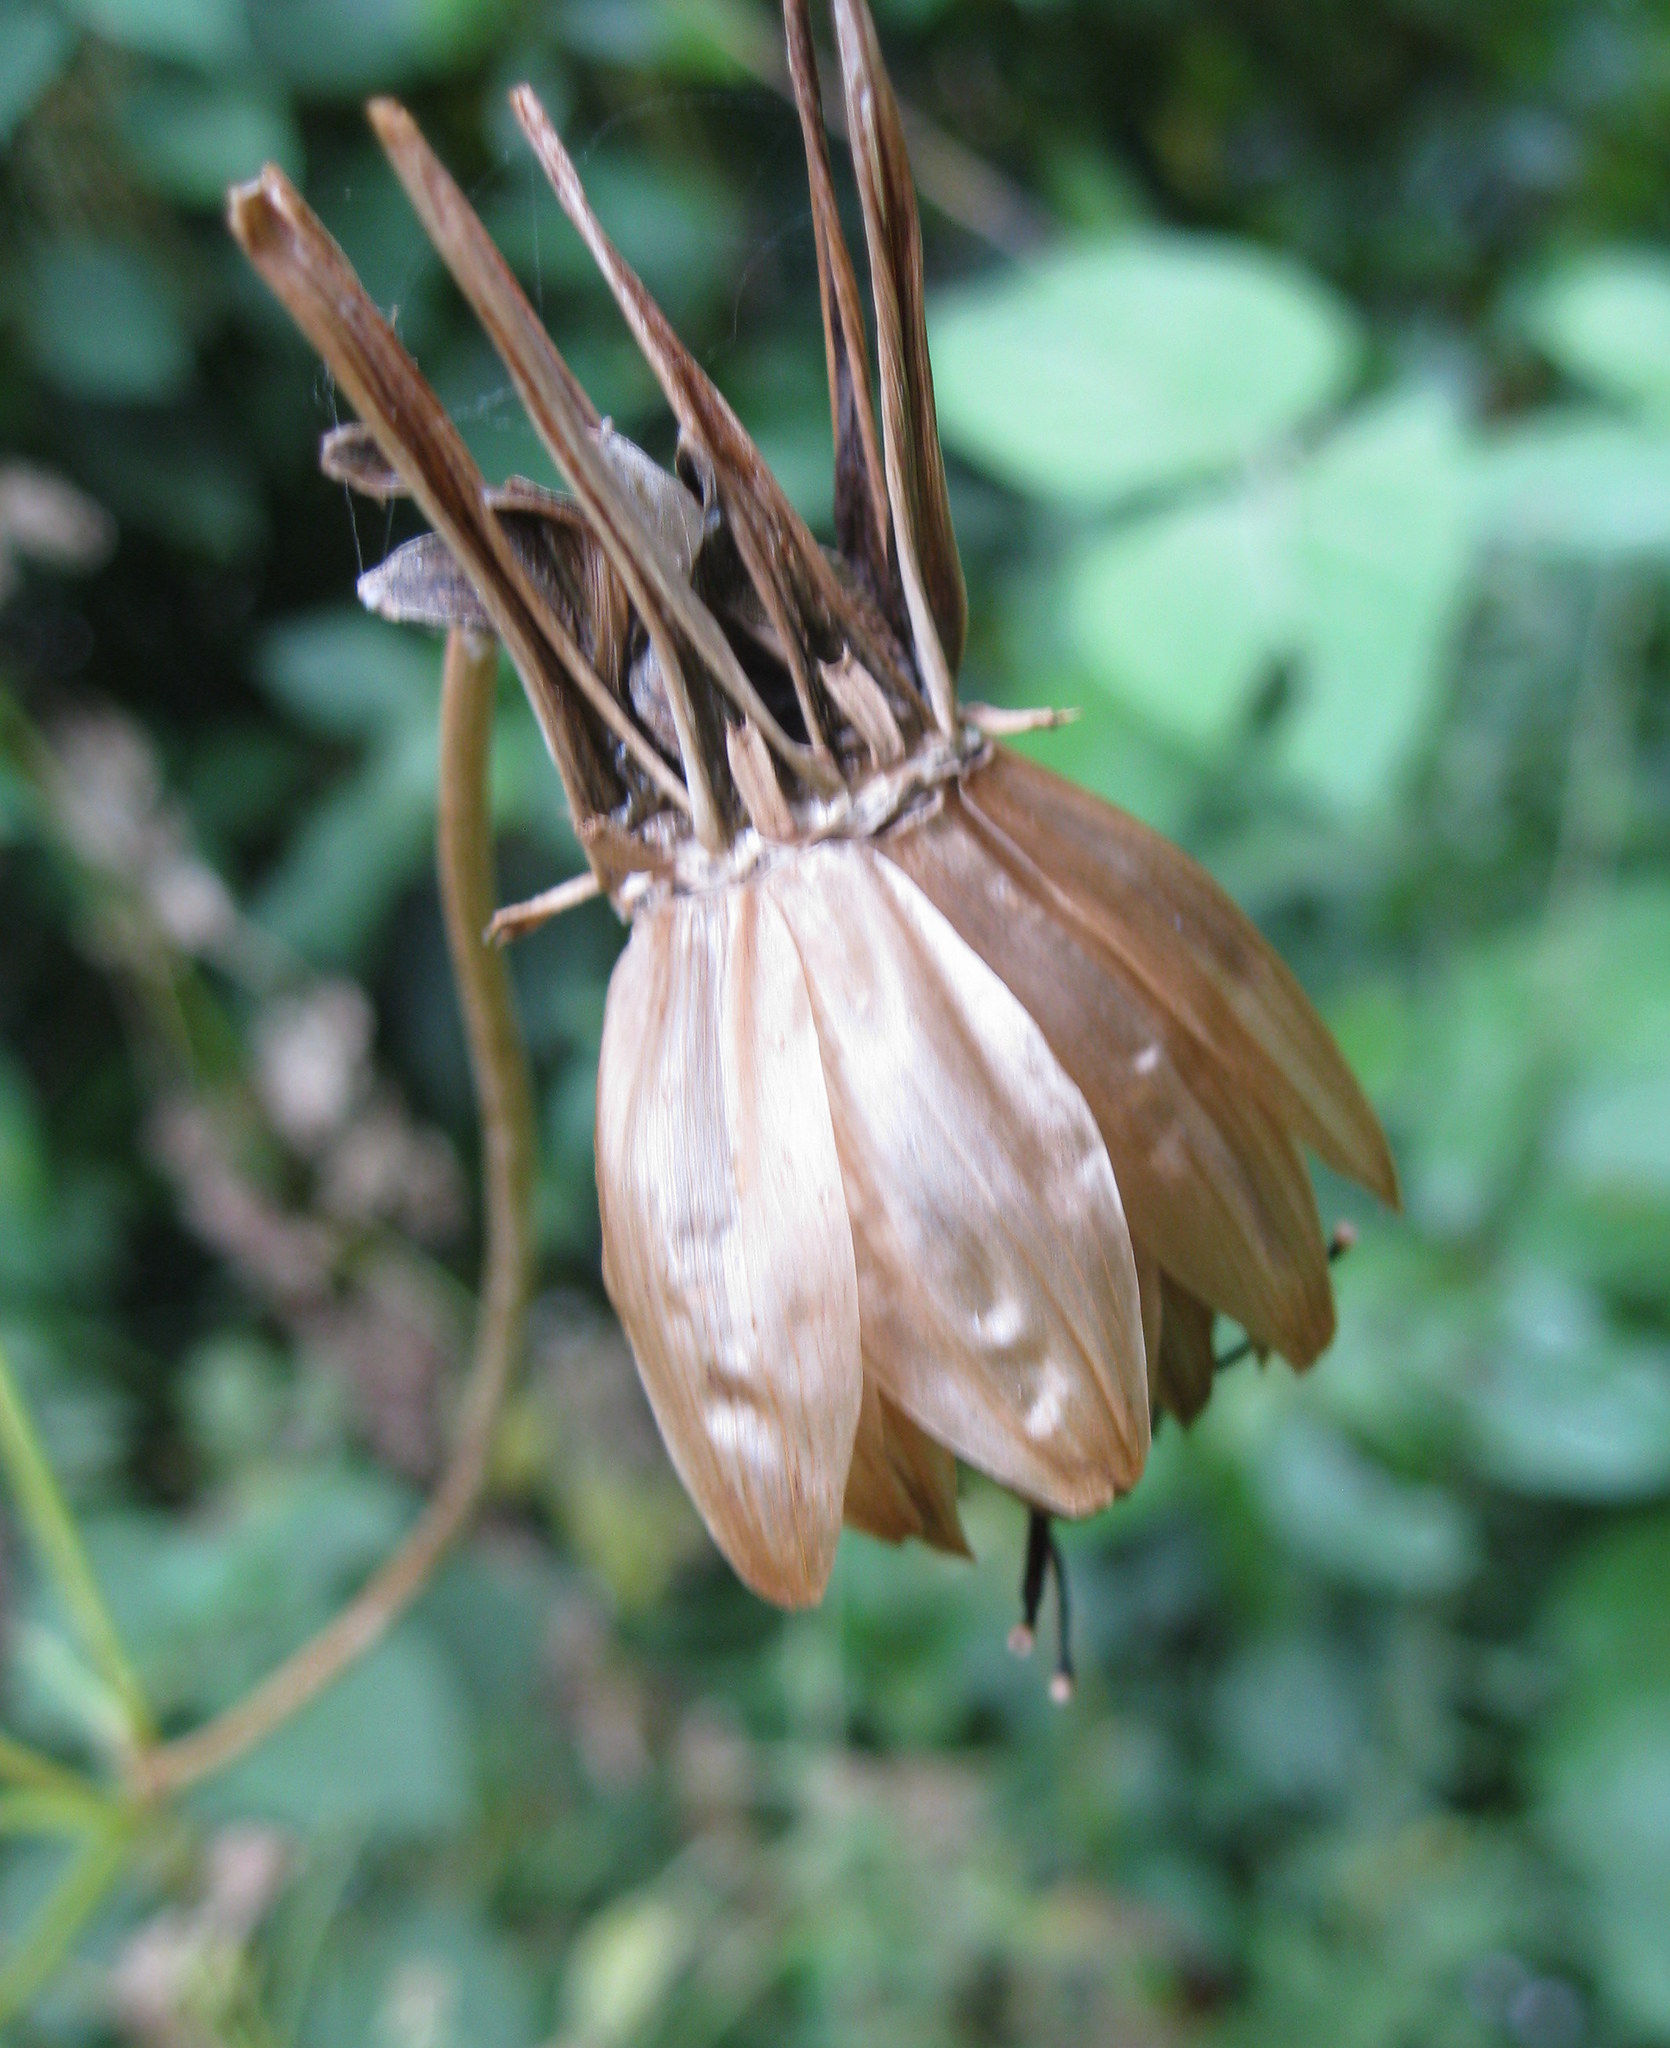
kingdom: Plantae
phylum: Tracheophyta
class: Magnoliopsida
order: Asterales
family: Asteraceae
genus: Dahlia
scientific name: Dahlia coccinea
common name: Red dahlia
